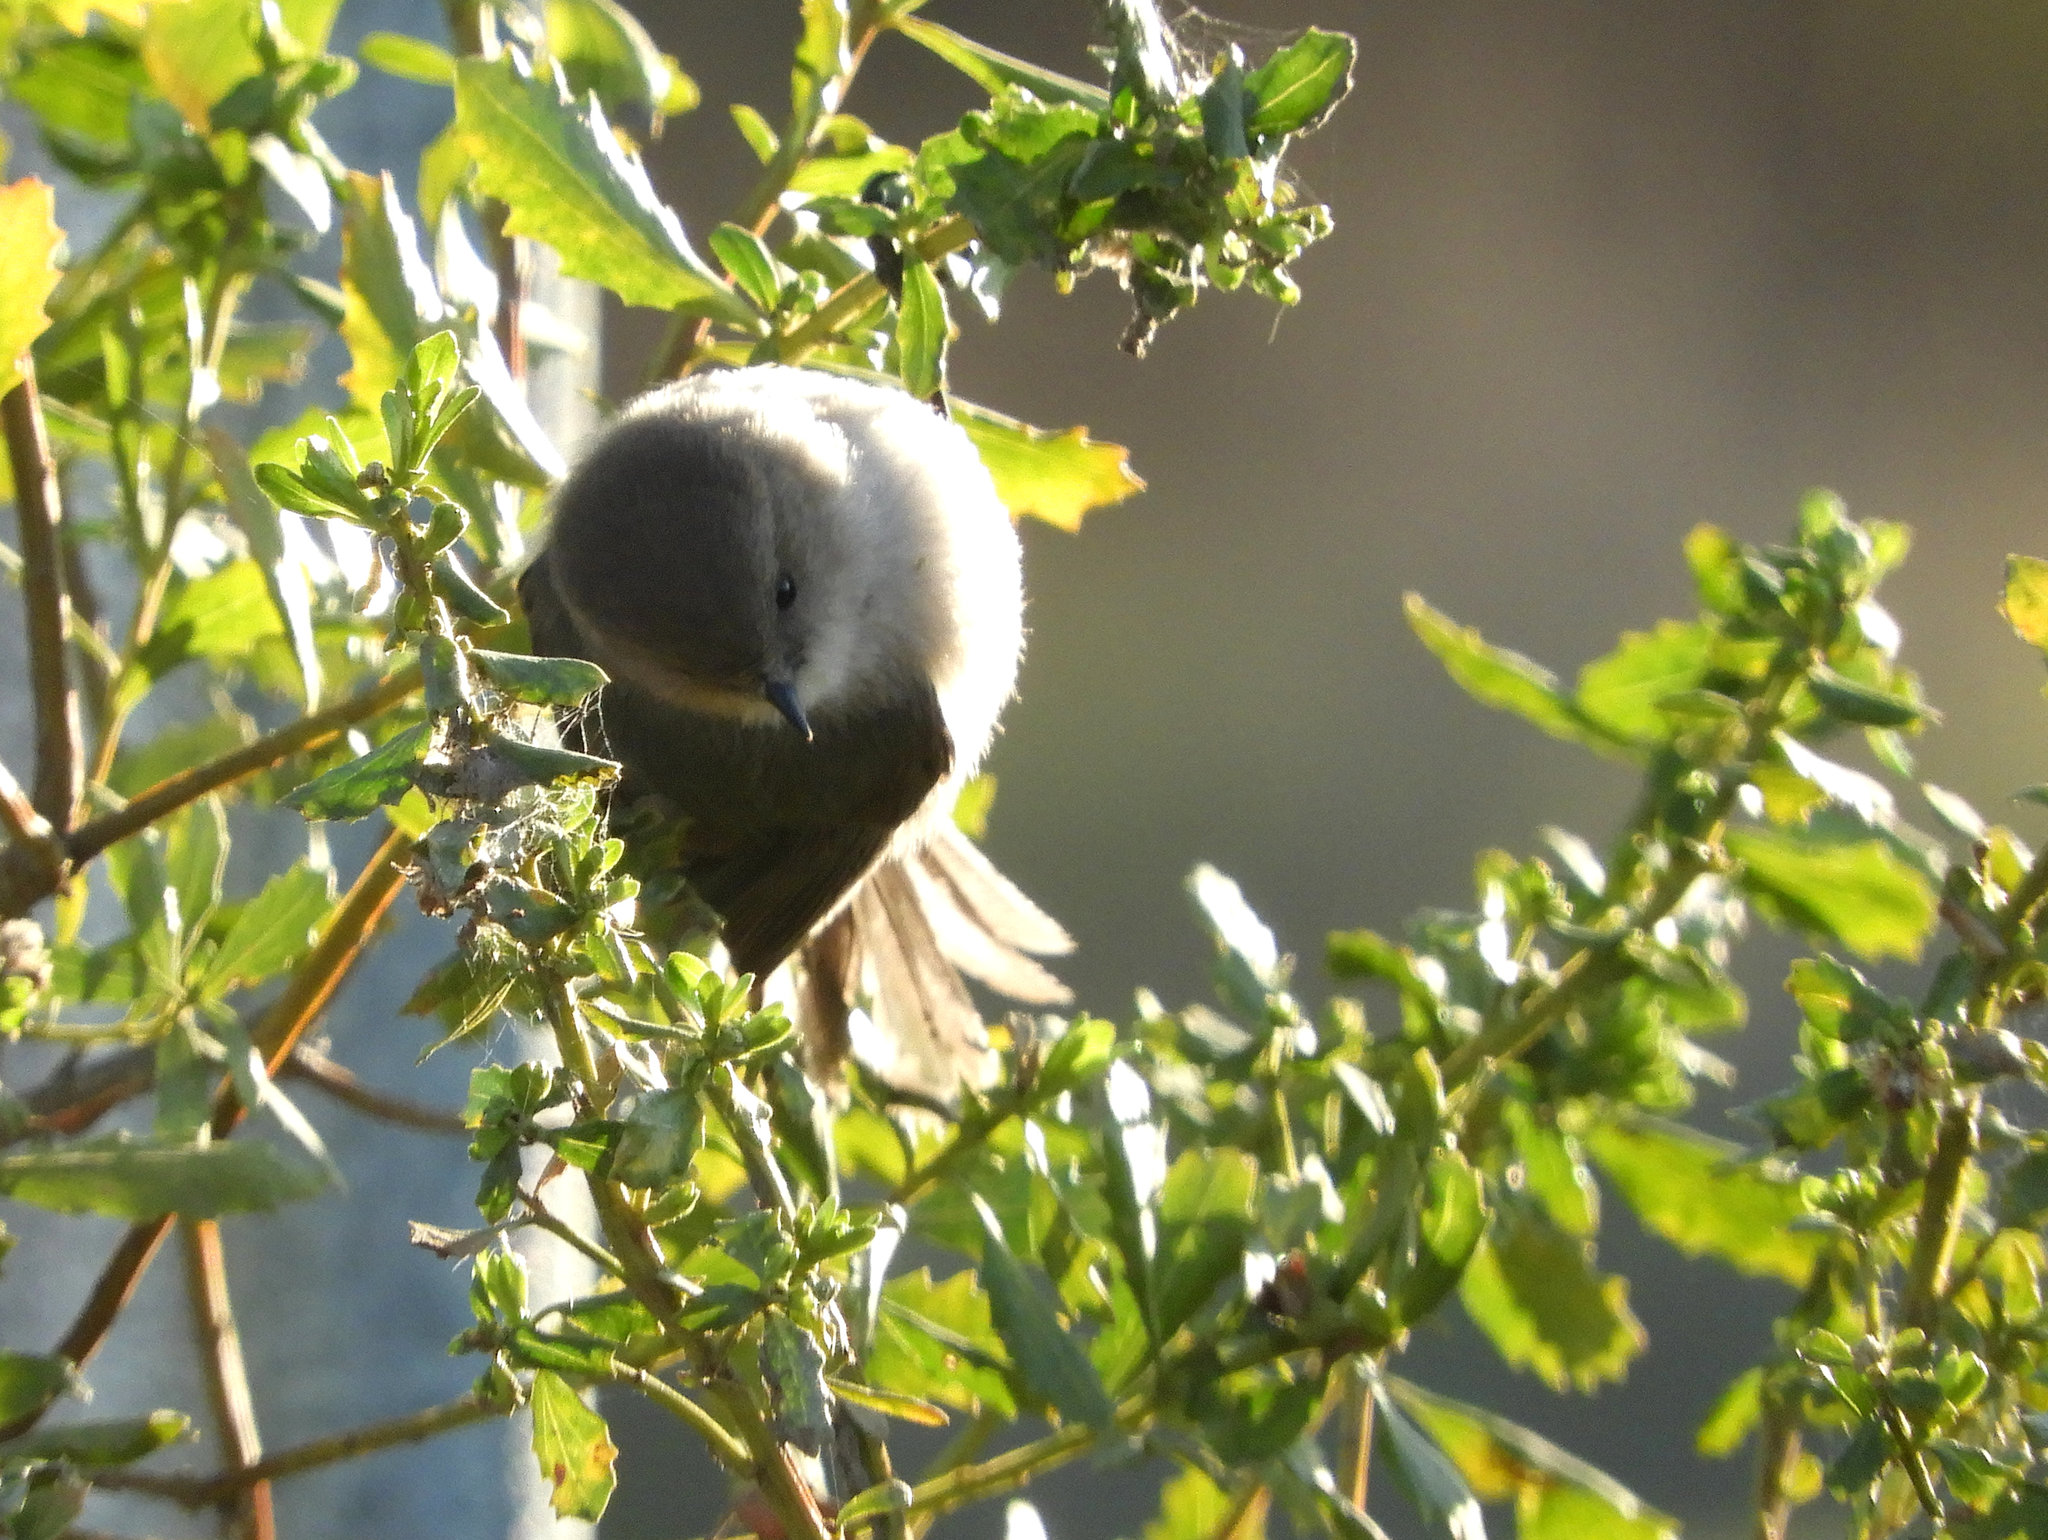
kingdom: Animalia
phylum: Chordata
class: Aves
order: Passeriformes
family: Aegithalidae
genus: Psaltriparus
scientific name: Psaltriparus minimus
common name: American bushtit
